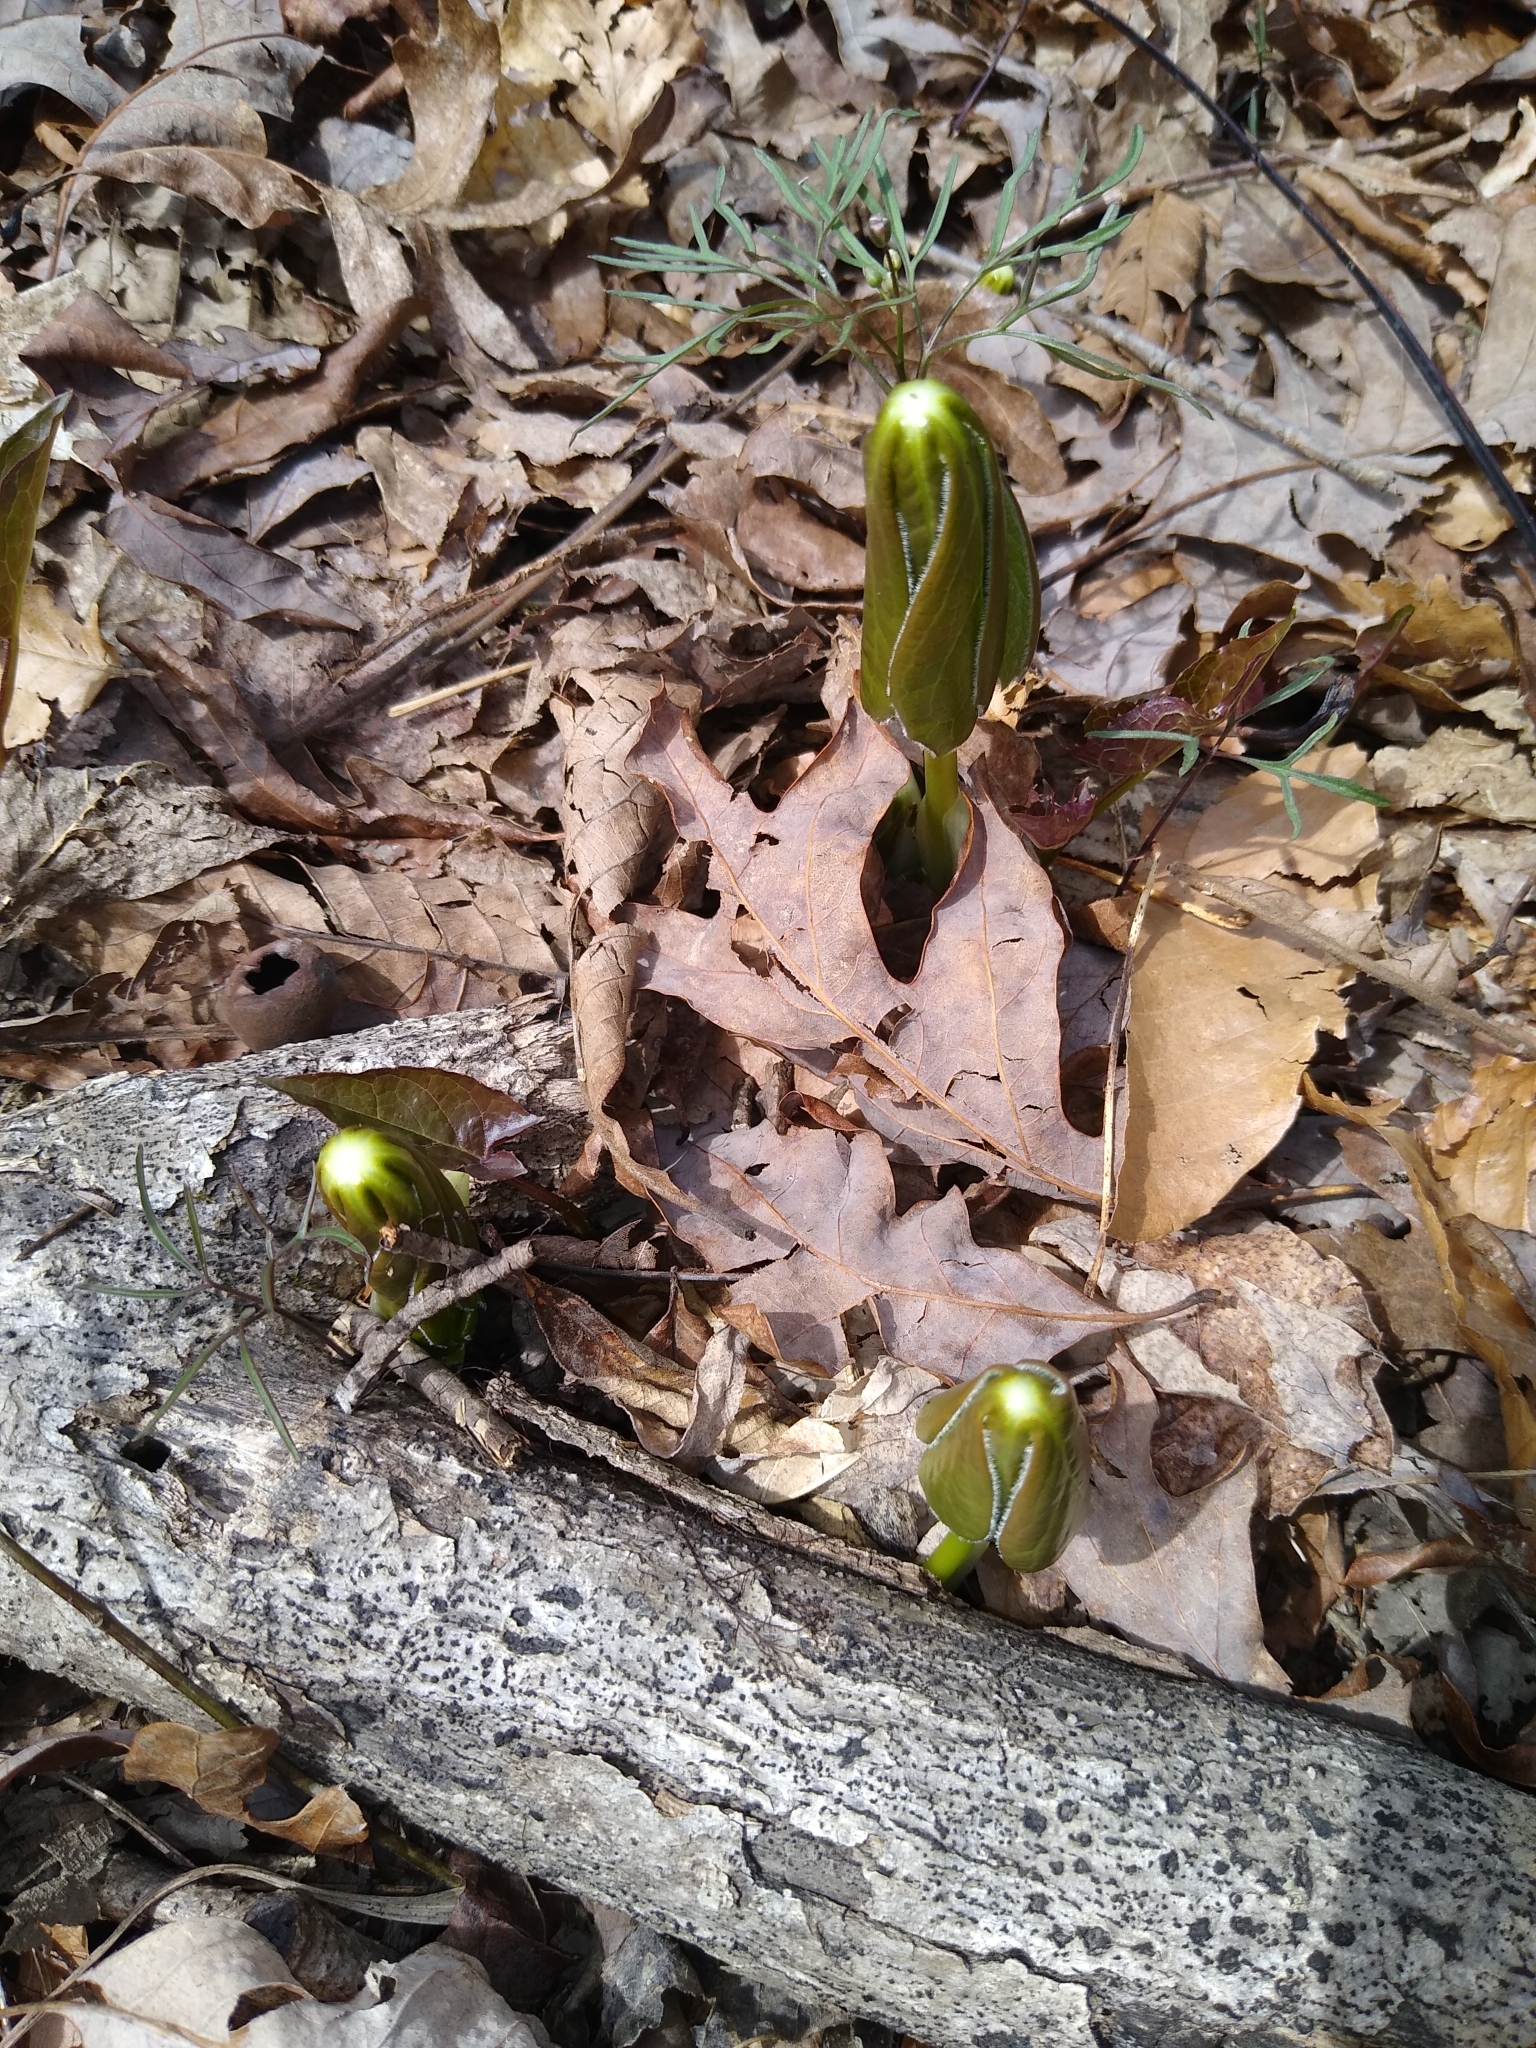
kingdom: Plantae
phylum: Tracheophyta
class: Magnoliopsida
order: Ranunculales
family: Berberidaceae
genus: Podophyllum
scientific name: Podophyllum peltatum
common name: Wild mandrake
